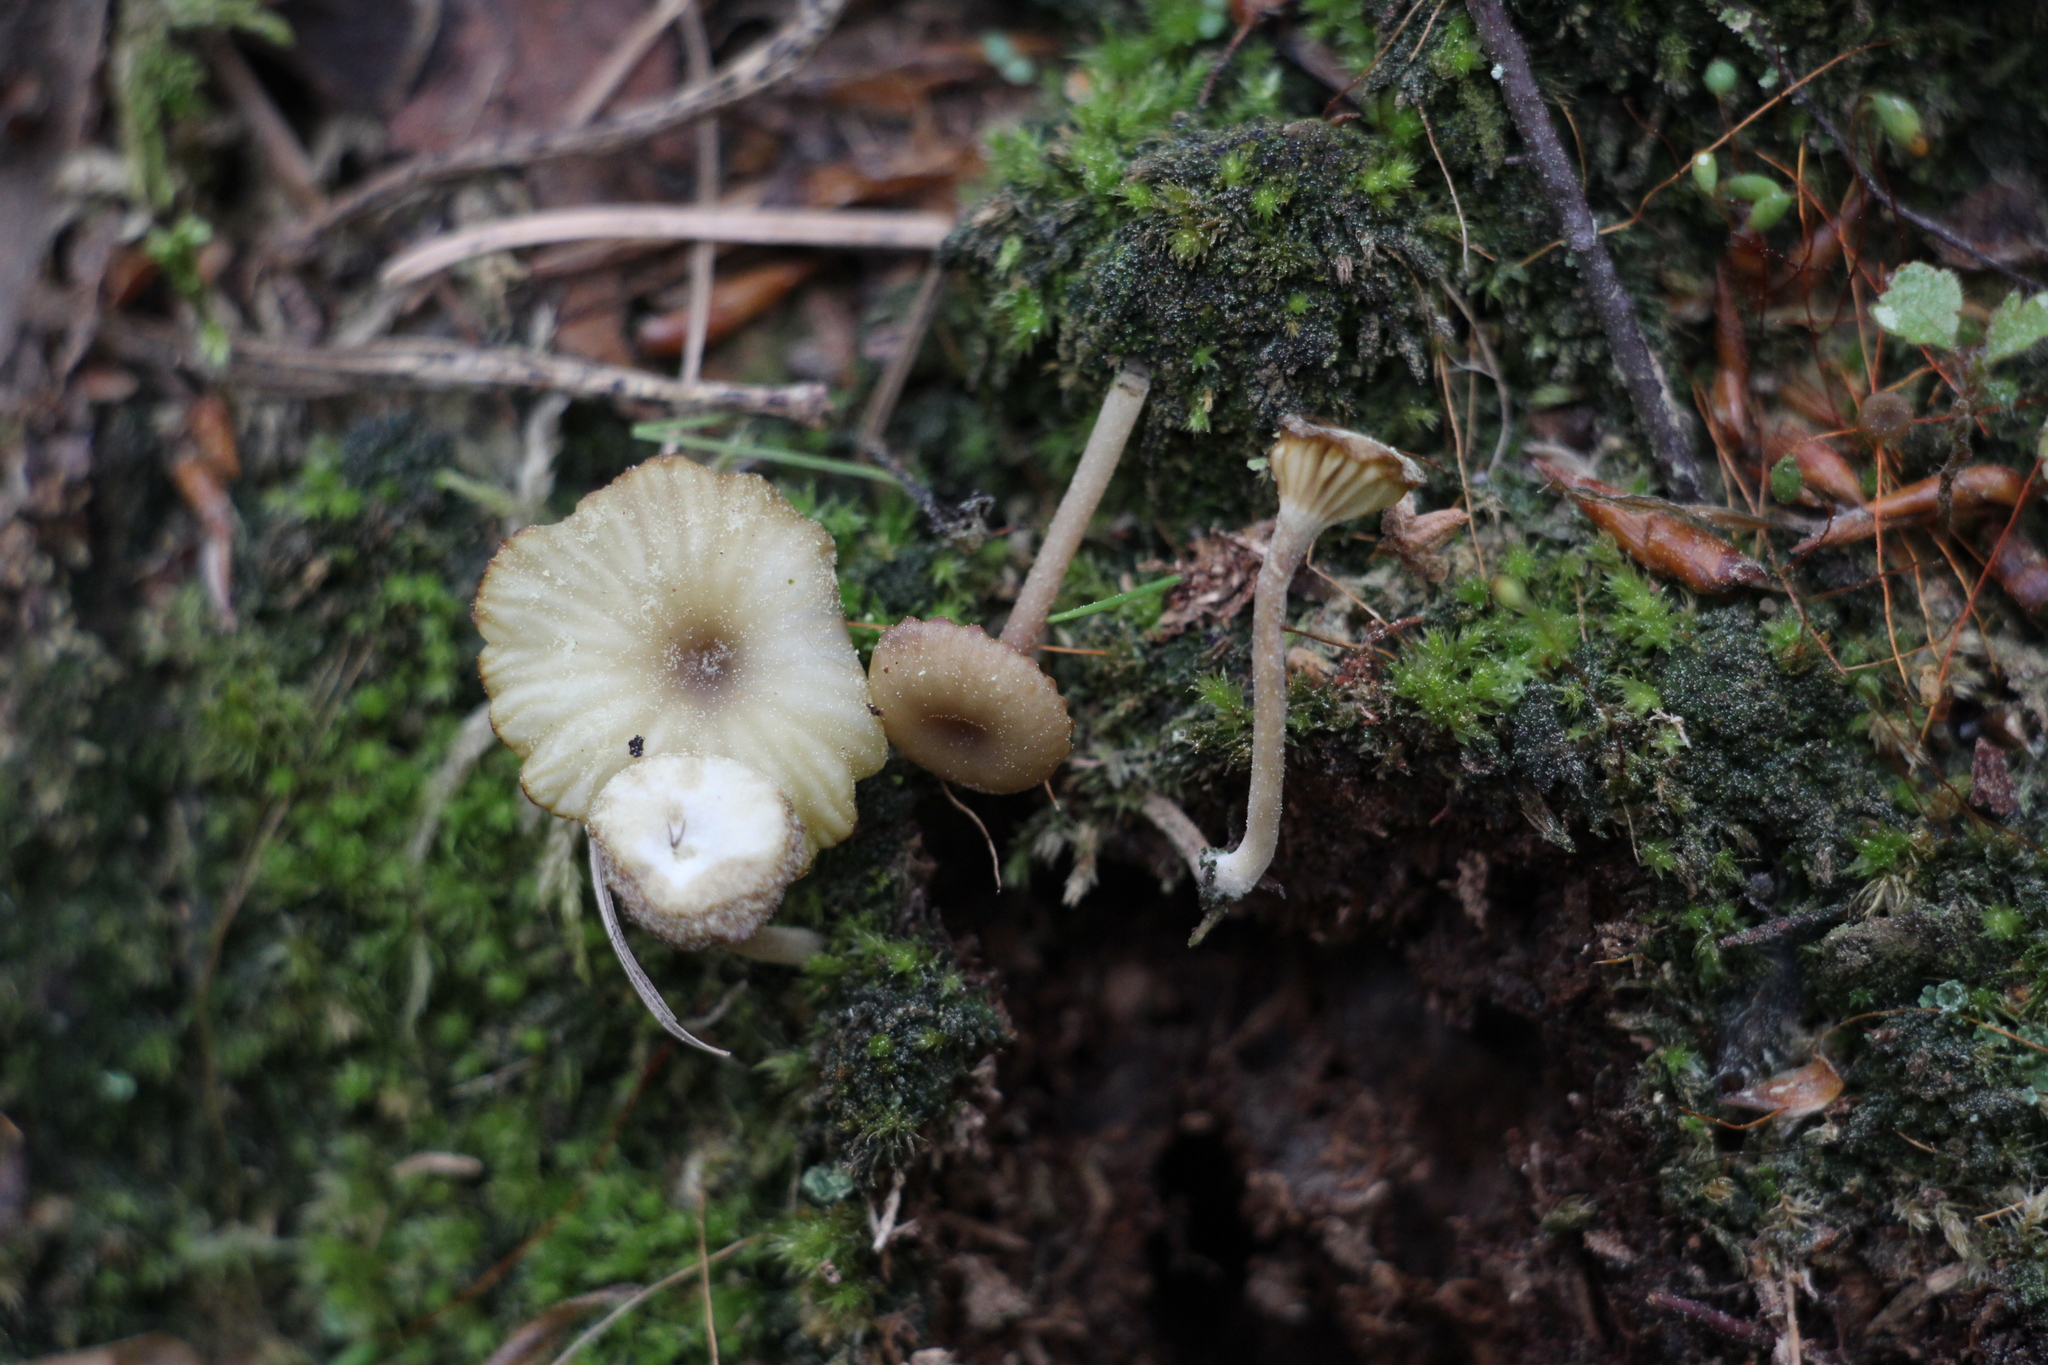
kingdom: Fungi
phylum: Basidiomycota
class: Agaricomycetes
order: Agaricales
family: Hygrophoraceae
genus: Lichenomphalia
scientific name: Lichenomphalia
